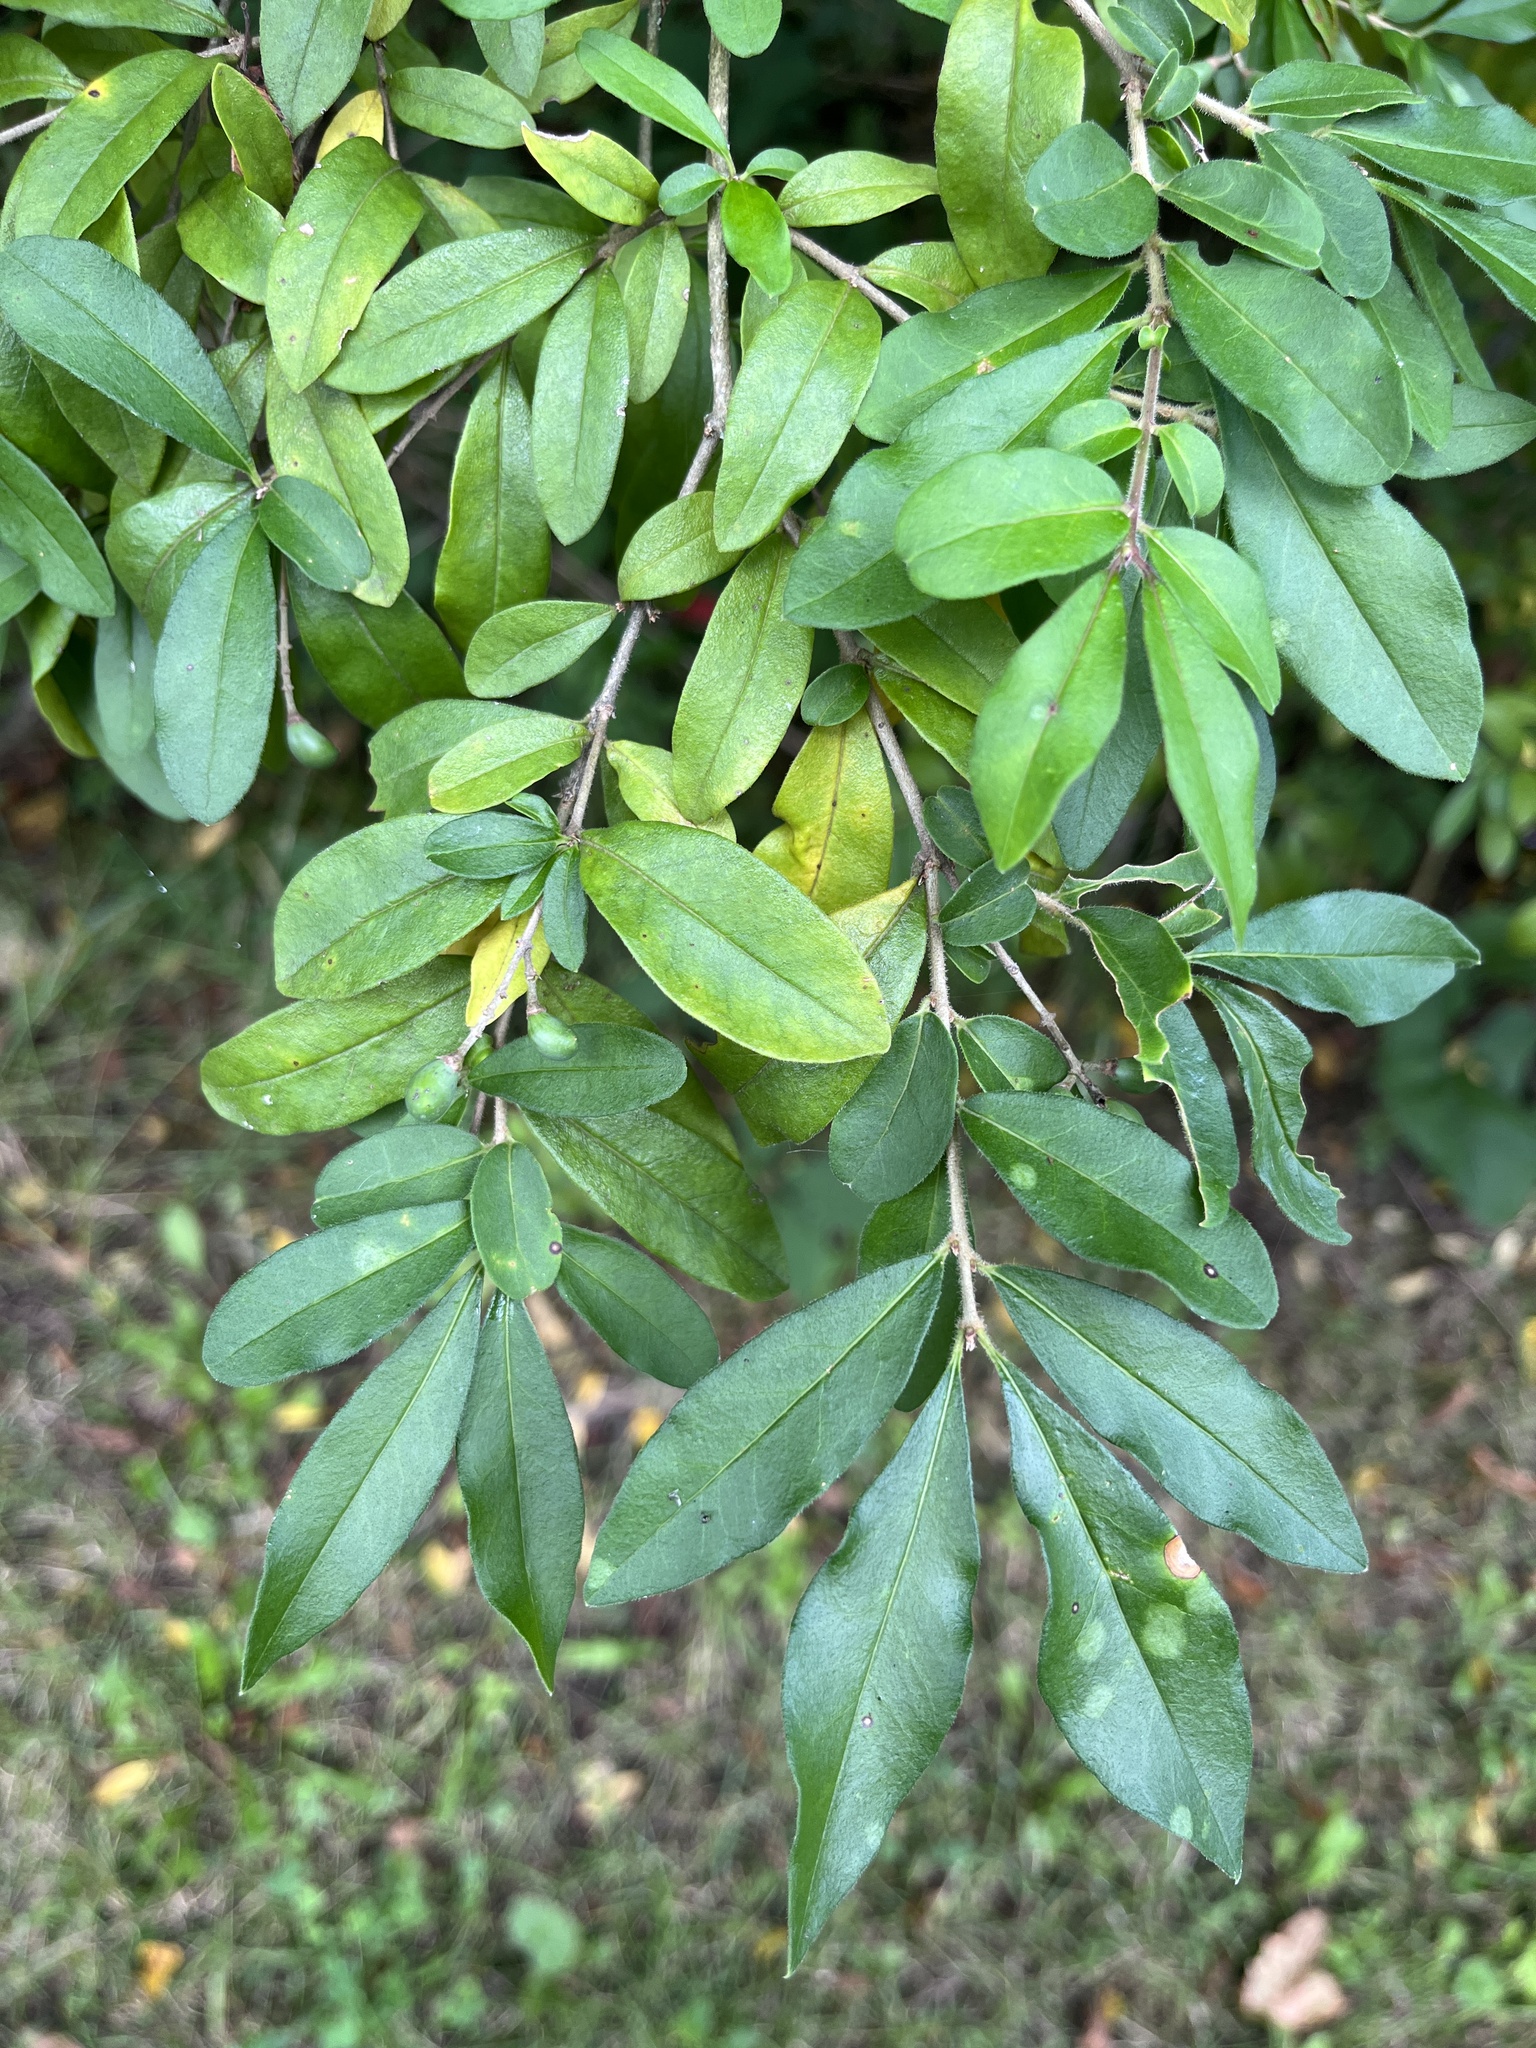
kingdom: Plantae
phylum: Tracheophyta
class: Magnoliopsida
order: Lamiales
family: Oleaceae
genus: Ligustrum
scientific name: Ligustrum obtusifolium
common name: Border privet
